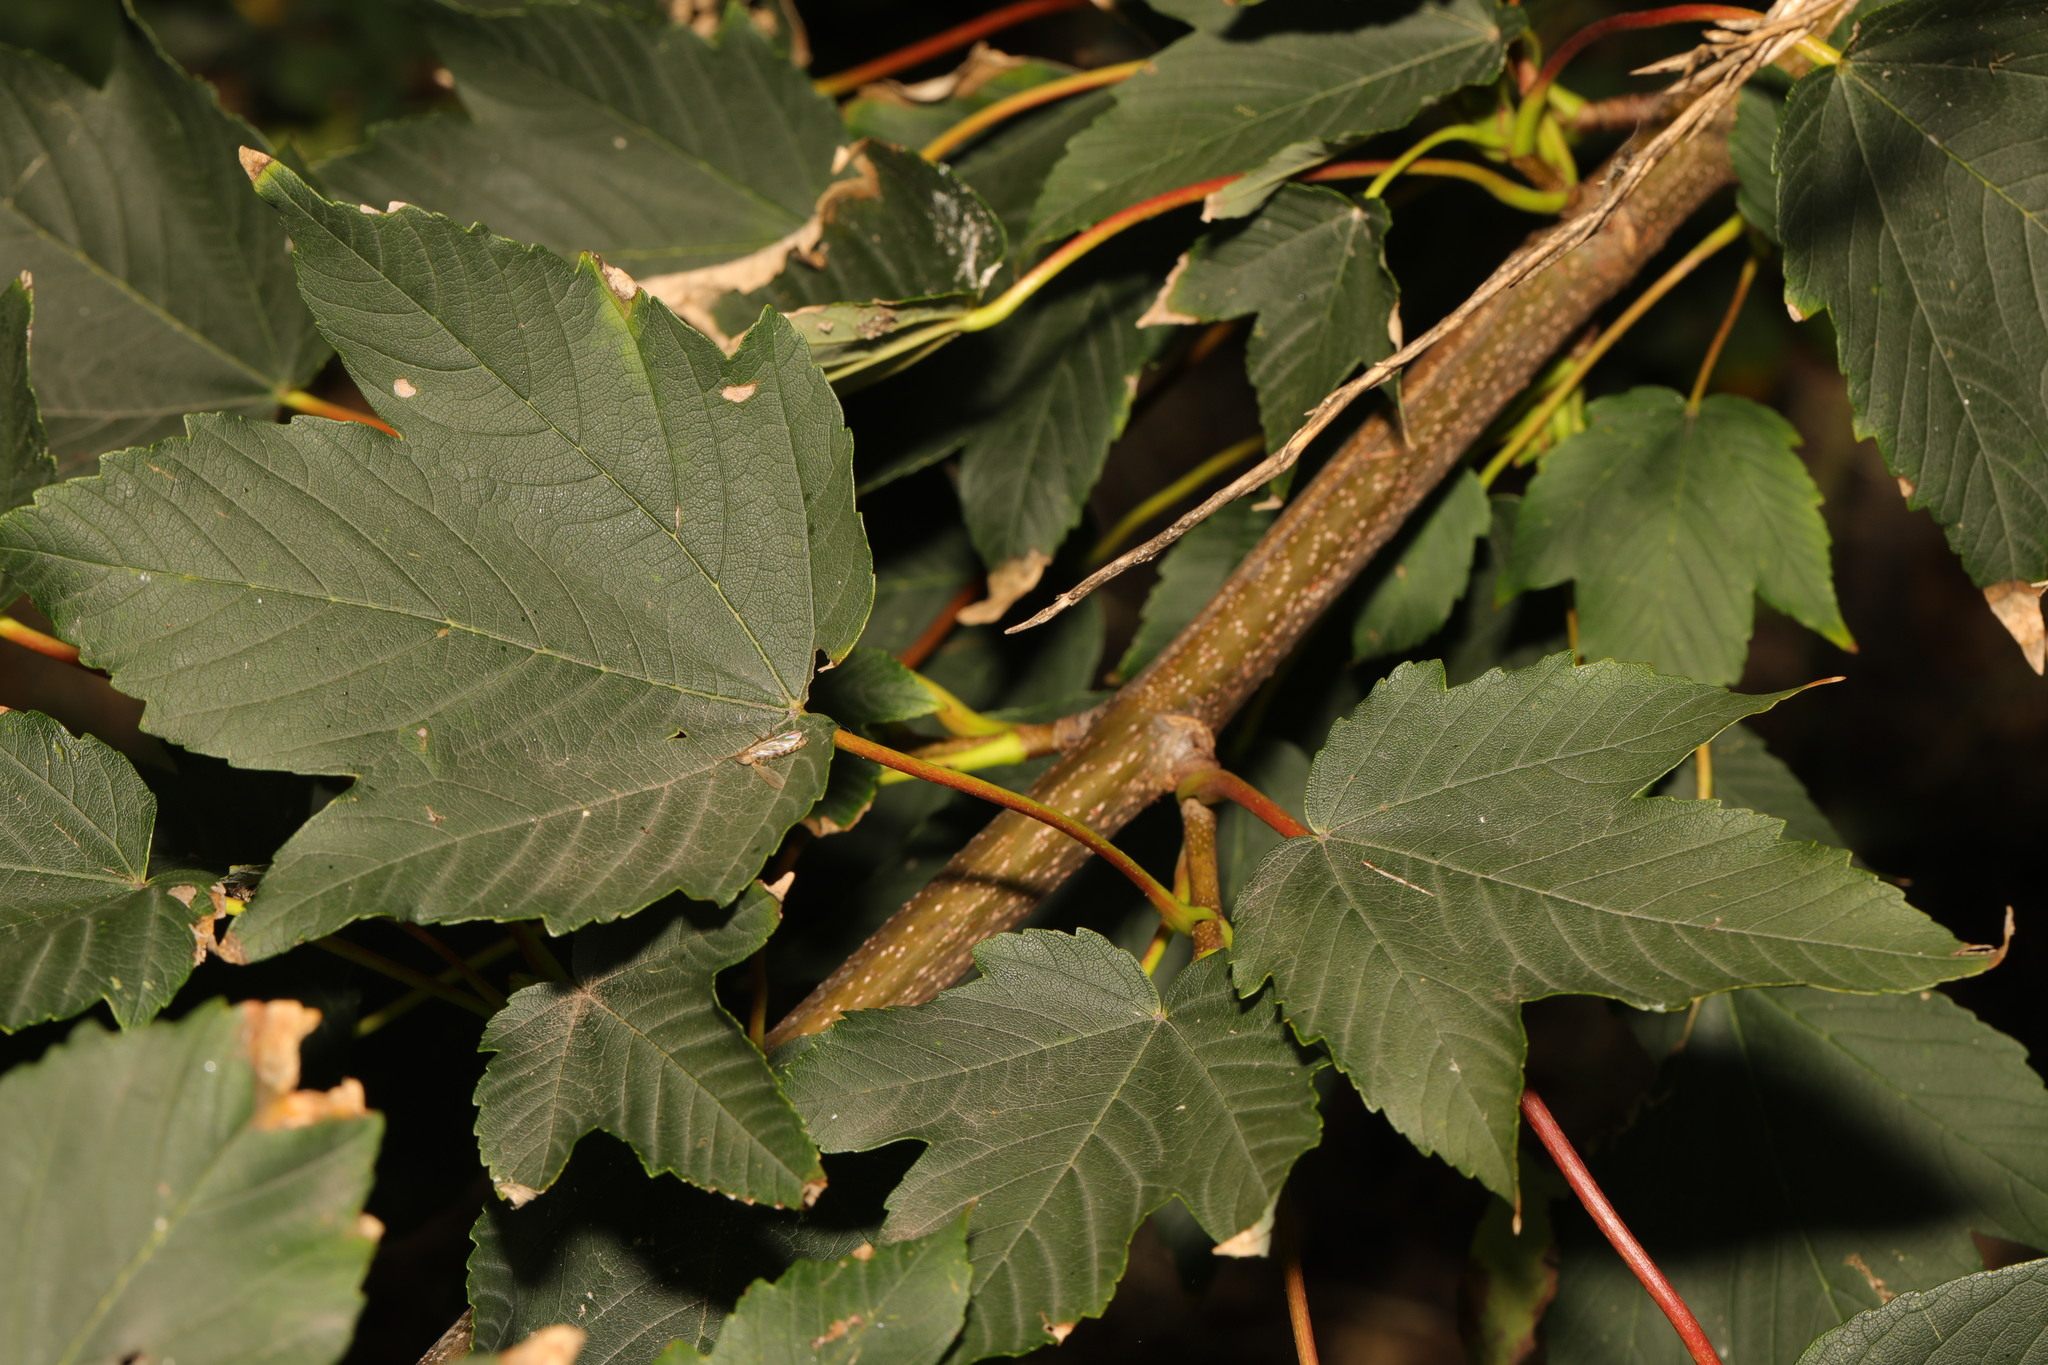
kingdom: Plantae
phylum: Tracheophyta
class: Magnoliopsida
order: Sapindales
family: Sapindaceae
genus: Acer
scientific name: Acer pseudoplatanus
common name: Sycamore
